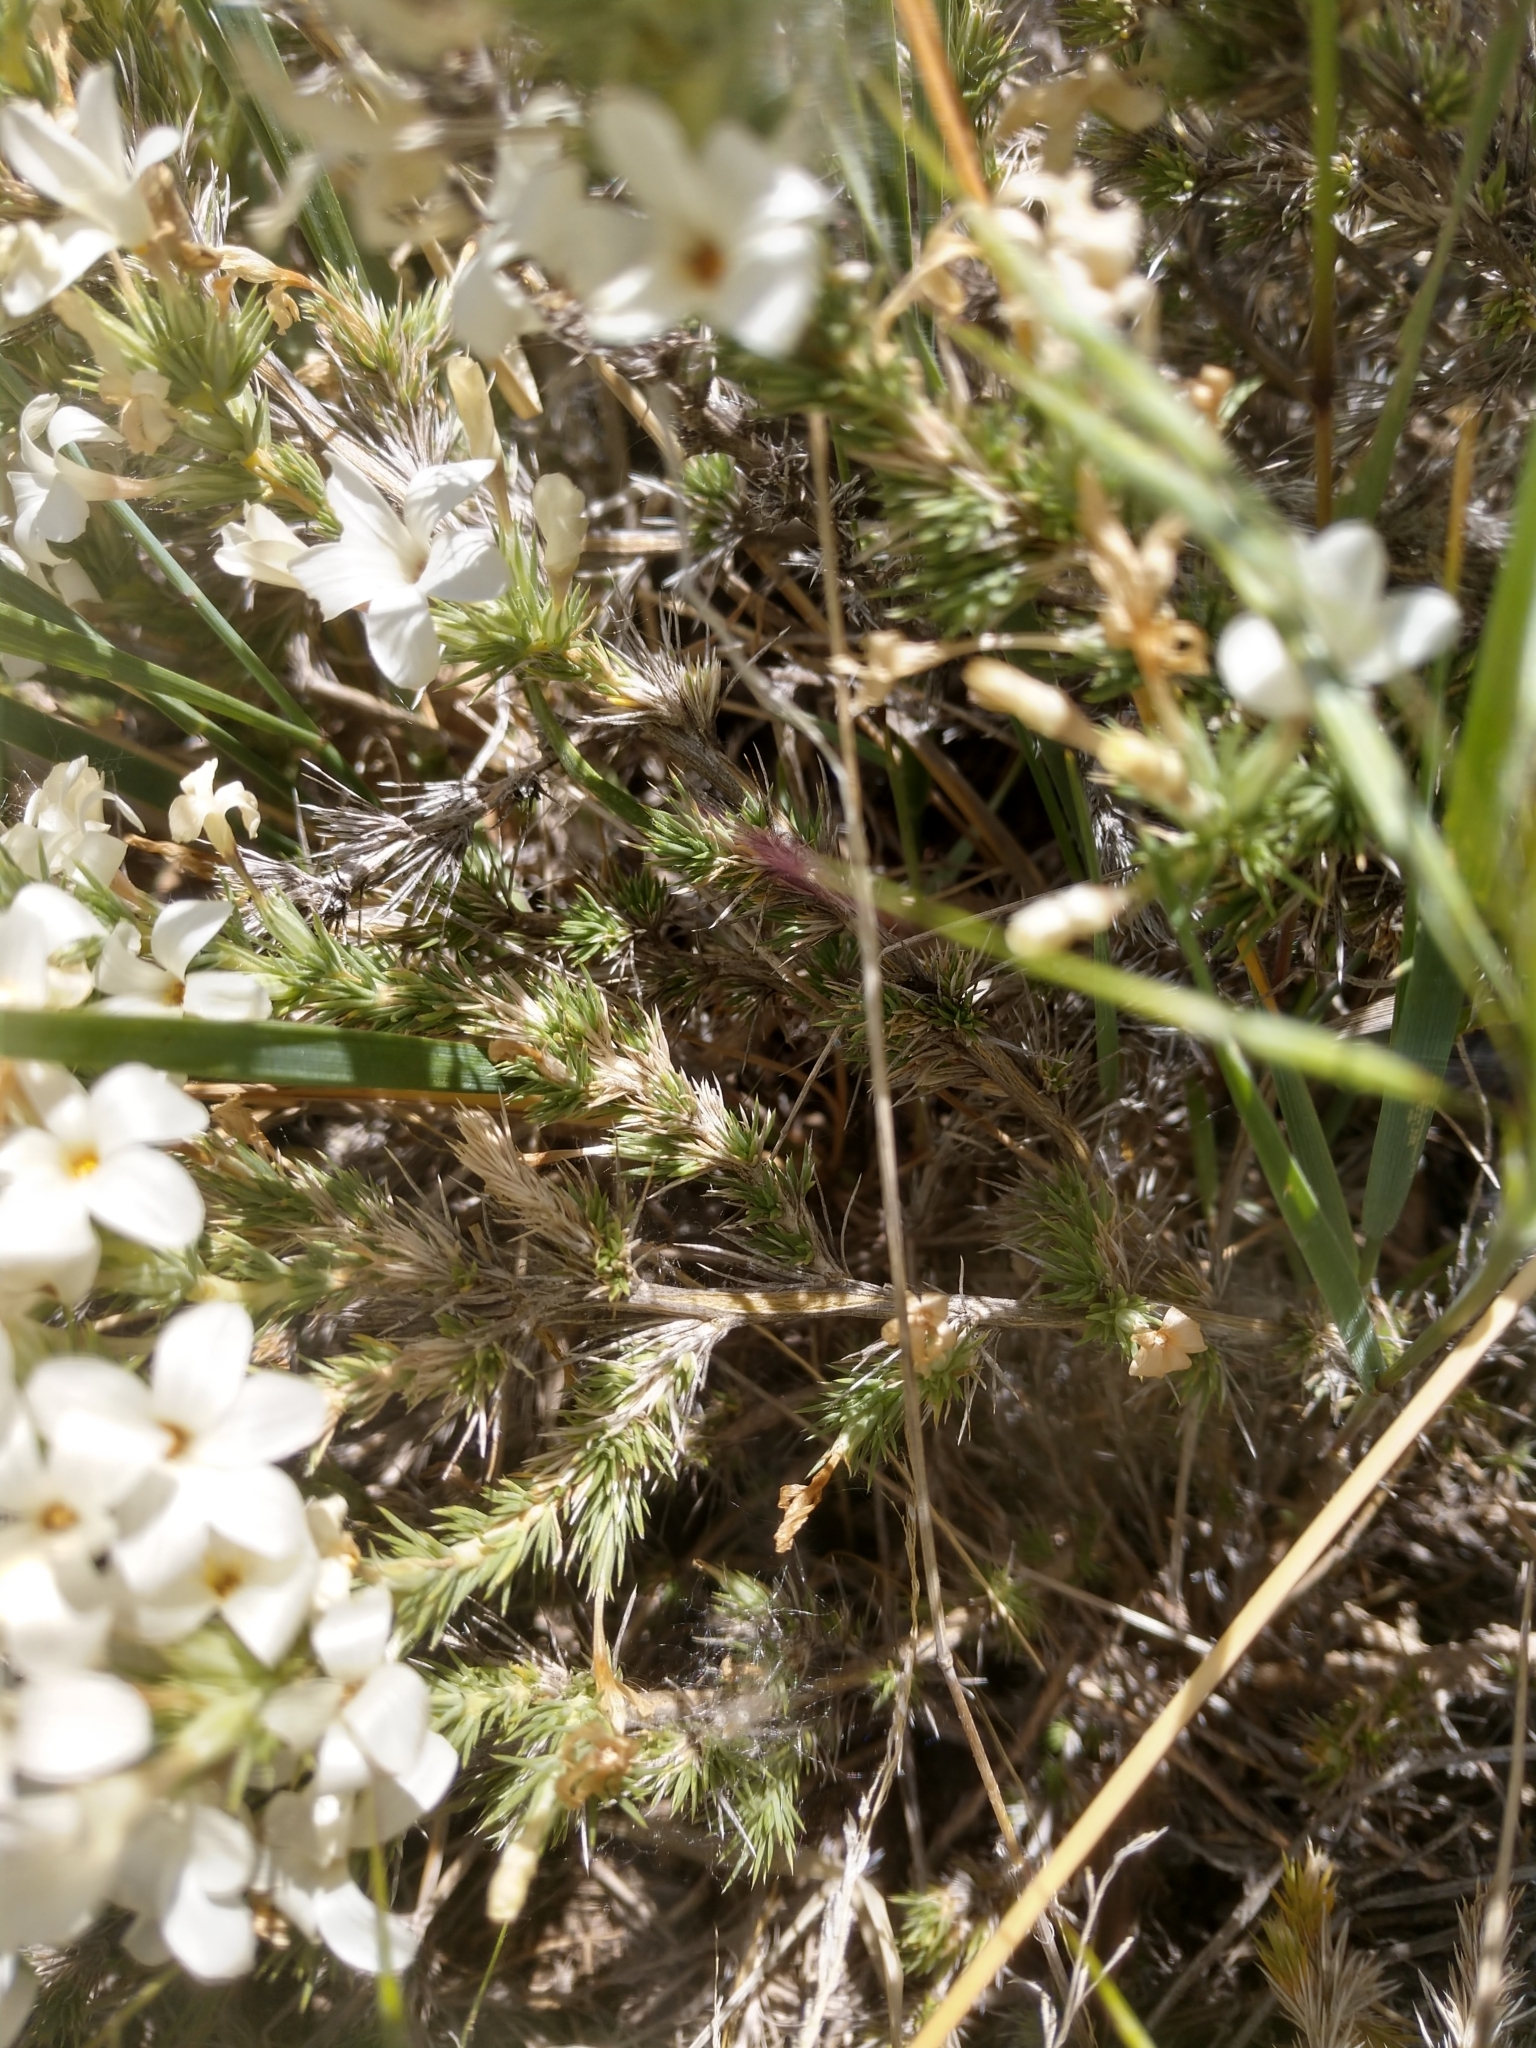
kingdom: Plantae
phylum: Tracheophyta
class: Magnoliopsida
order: Ericales
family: Polemoniaceae
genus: Linanthus
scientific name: Linanthus pungens
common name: Granite prickly phlox
